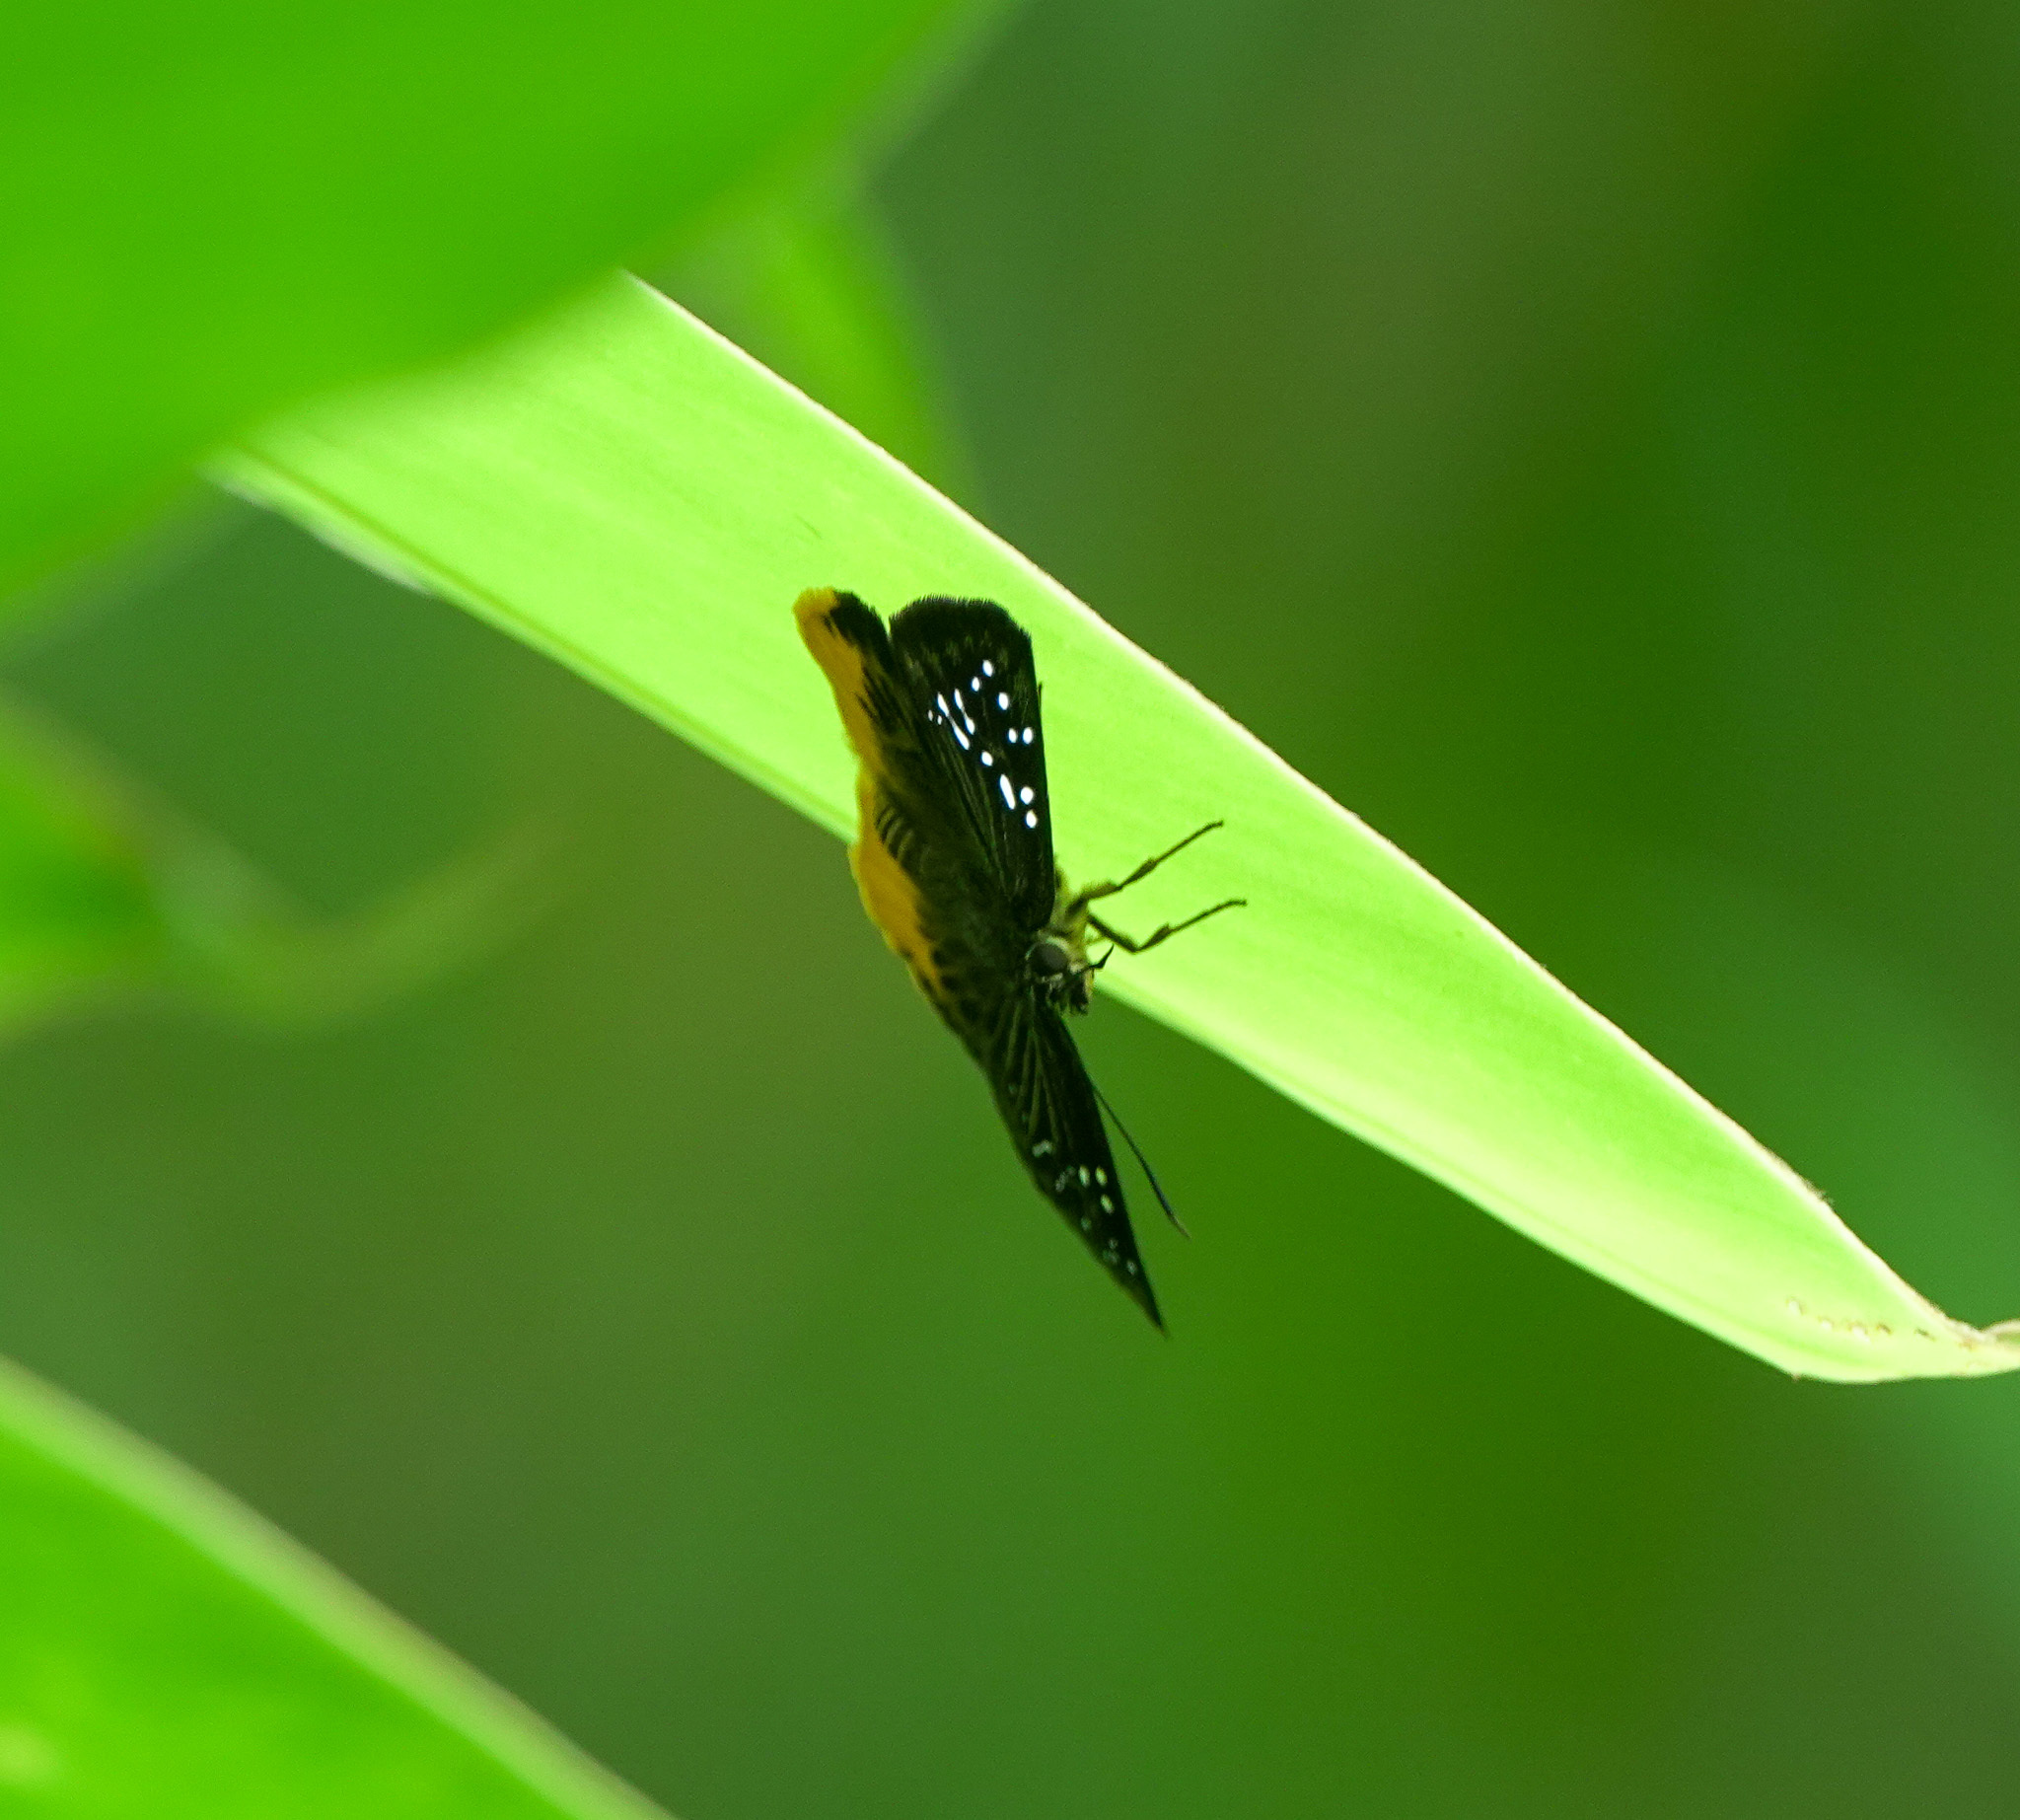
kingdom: Animalia
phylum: Arthropoda
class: Insecta
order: Lepidoptera
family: Hesperiidae
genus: Mooreana
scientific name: Mooreana trichoneura
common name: Yellow flat
